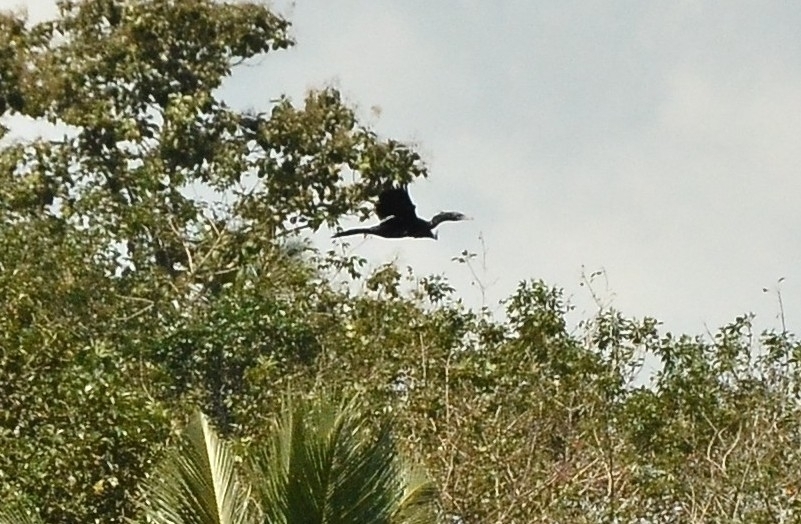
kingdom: Animalia
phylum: Chordata
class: Aves
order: Suliformes
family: Phalacrocoracidae
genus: Microcarbo
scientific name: Microcarbo niger
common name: Little cormorant
